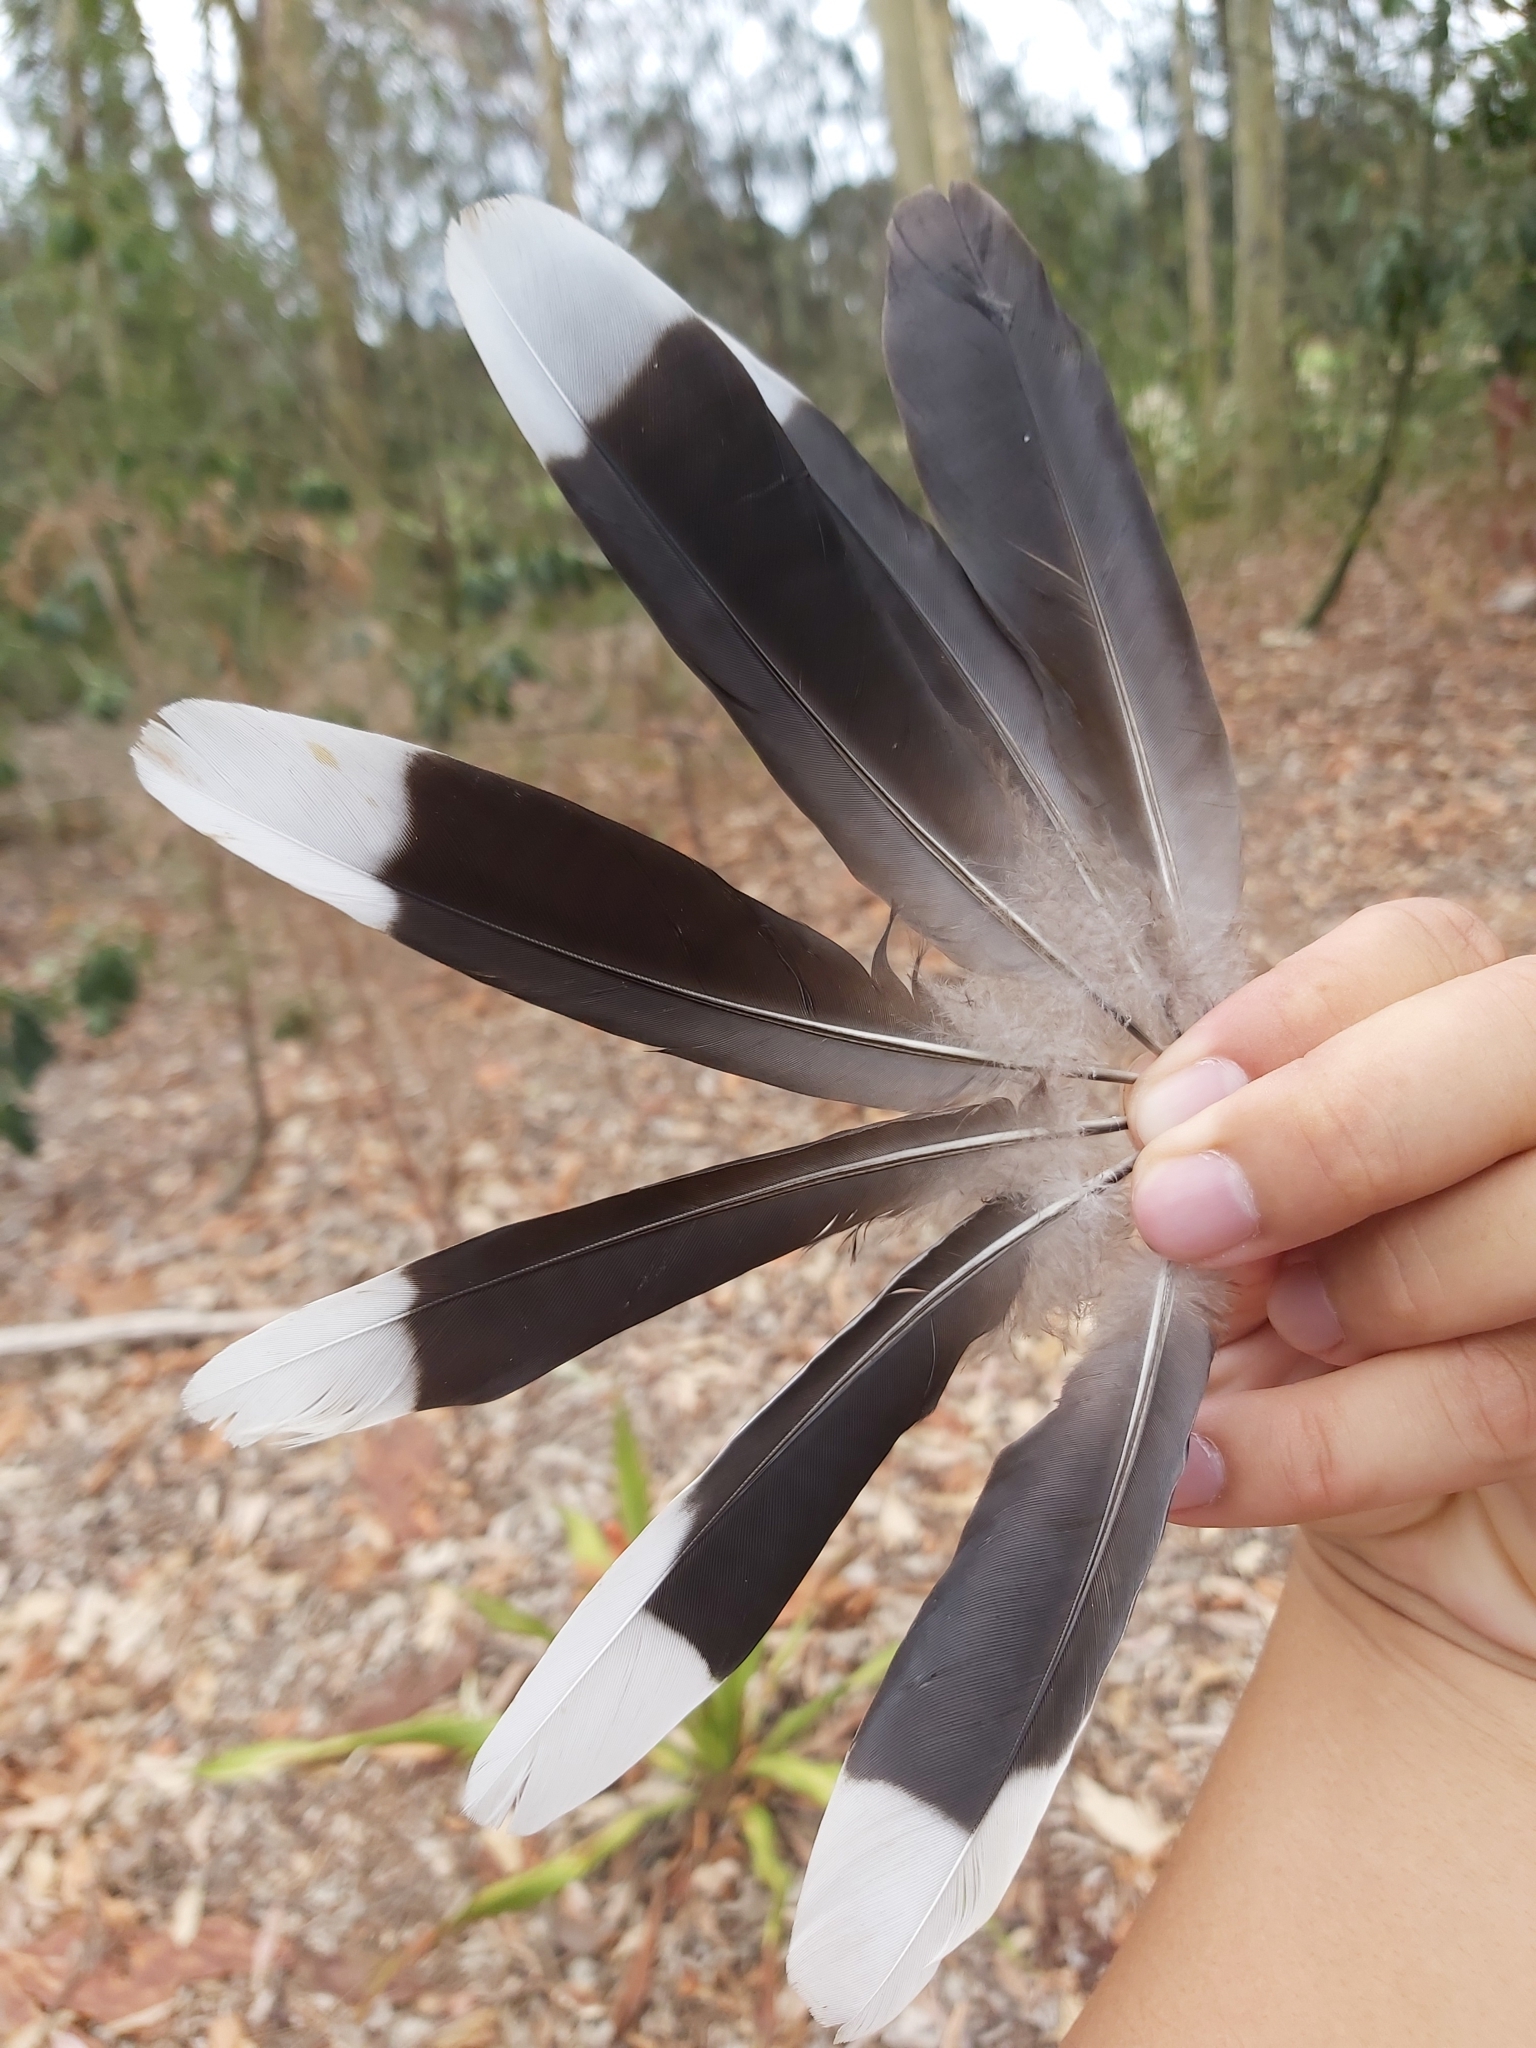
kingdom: Animalia
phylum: Chordata
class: Aves
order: Columbiformes
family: Columbidae
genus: Spilopelia
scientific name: Spilopelia chinensis
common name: Spotted dove
